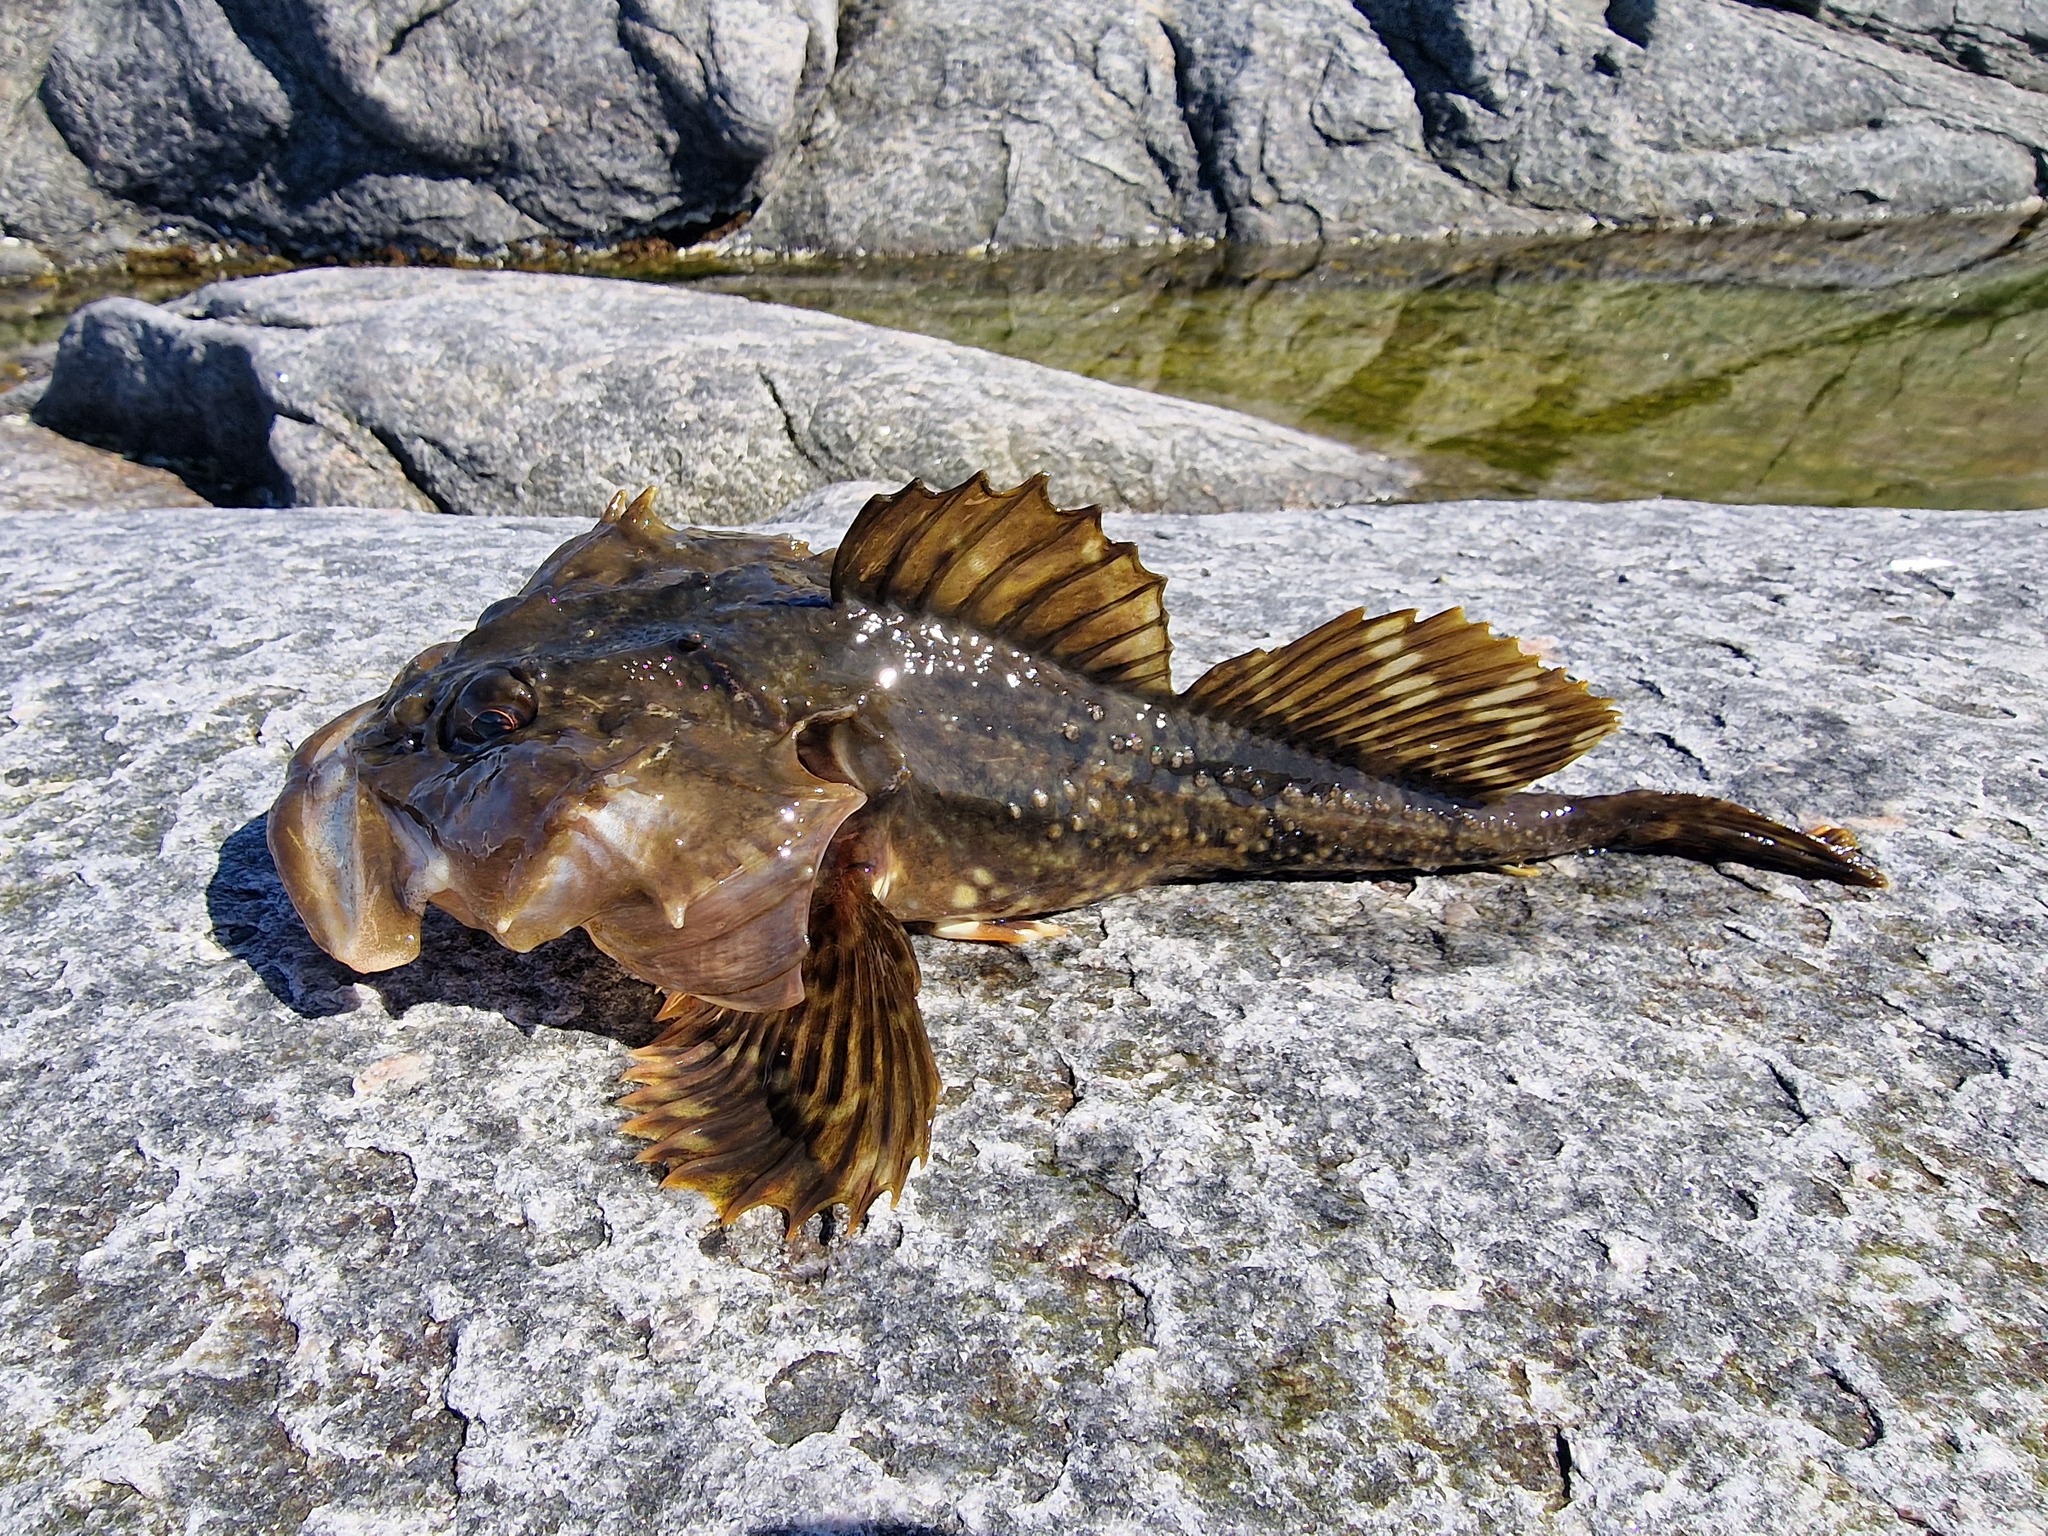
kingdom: Animalia
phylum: Chordata
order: Scorpaeniformes
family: Cottidae
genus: Myoxocephalus
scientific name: Myoxocephalus scorpius
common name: Shorthorn sculpin
